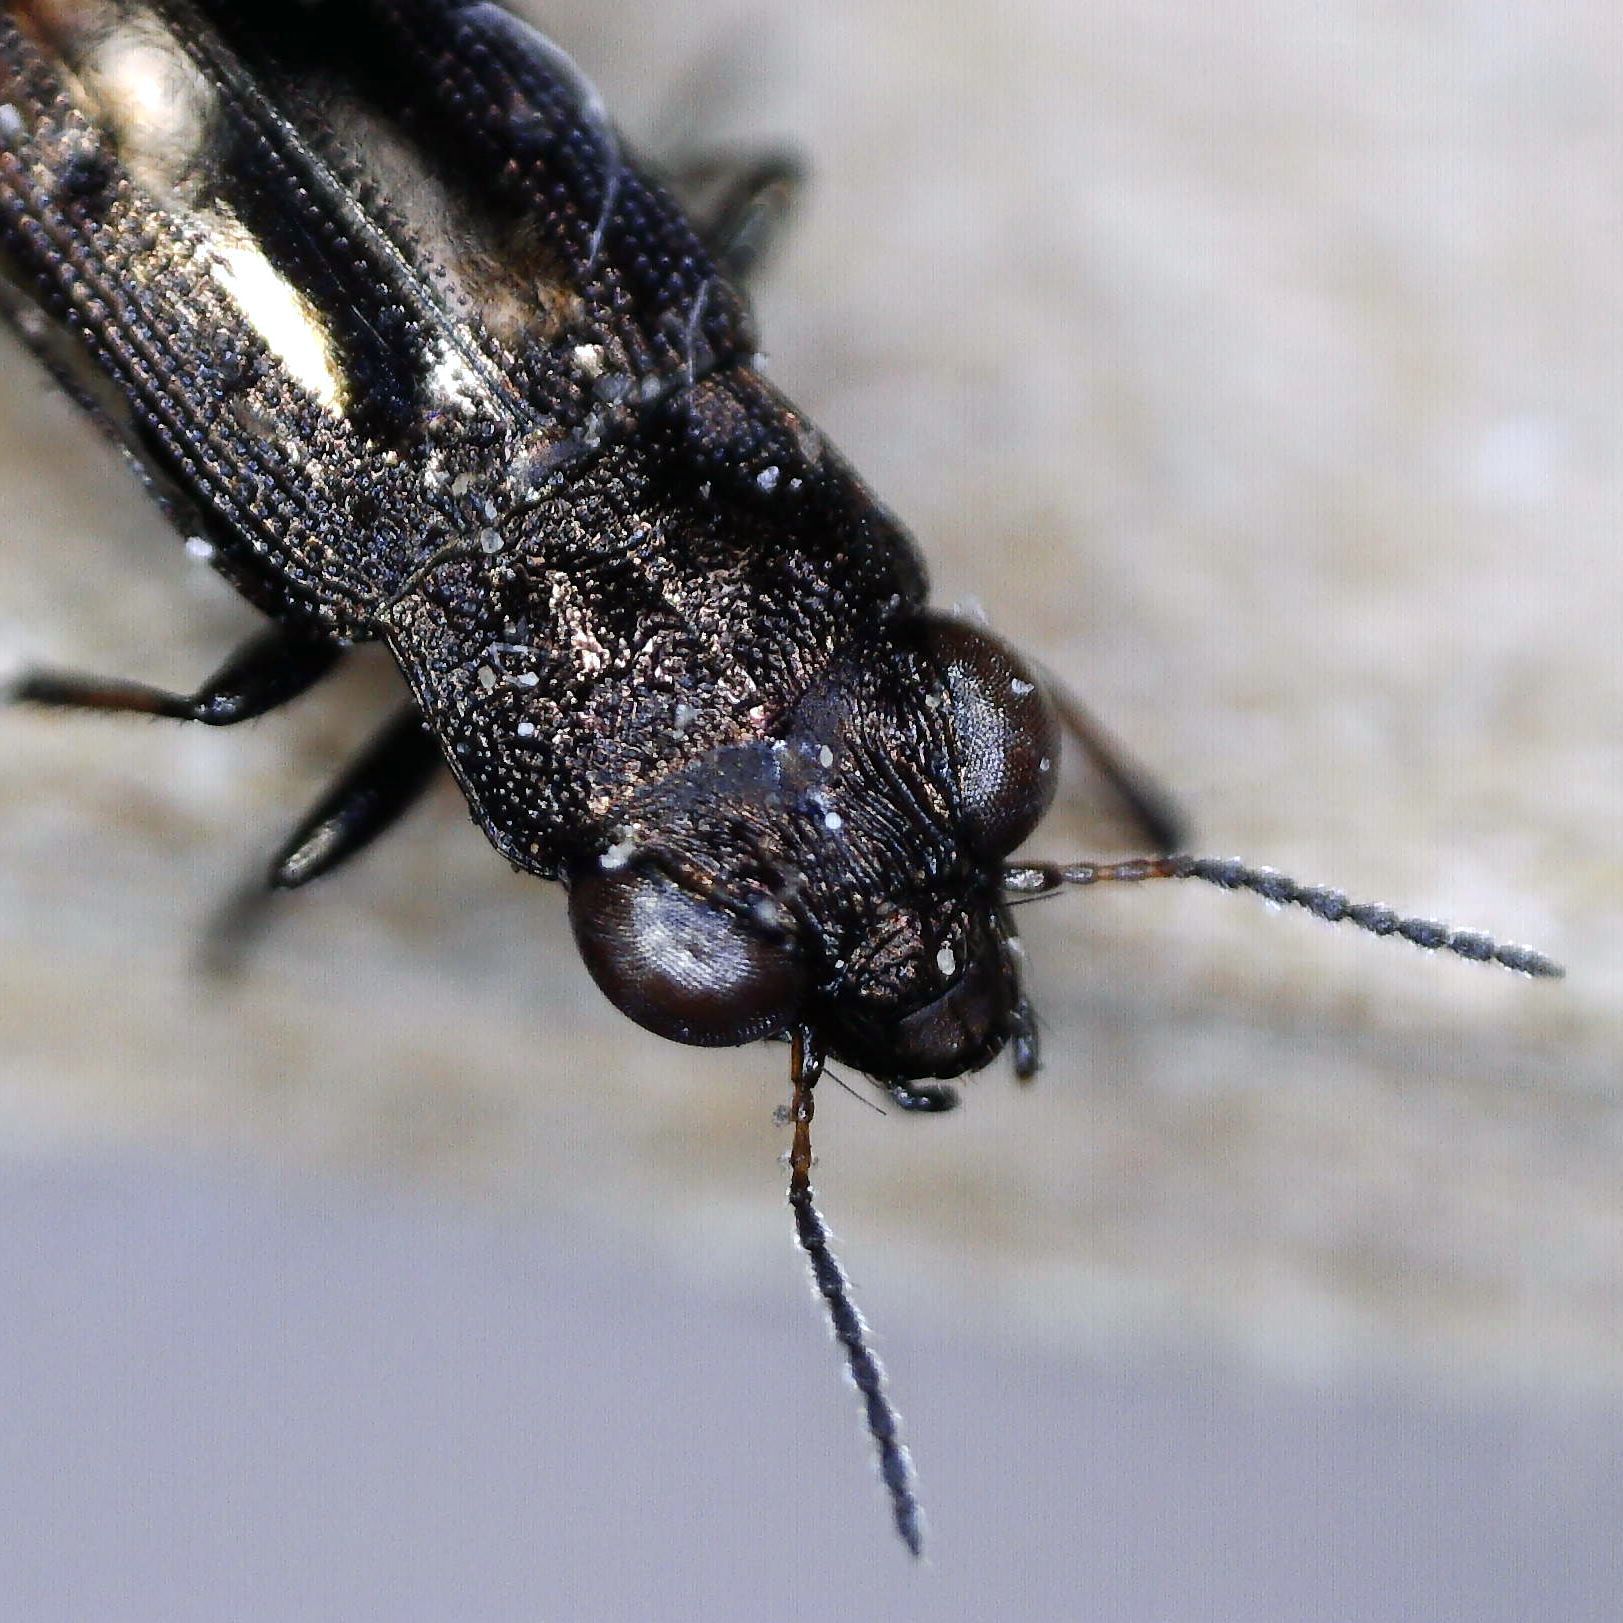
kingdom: Animalia
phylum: Arthropoda
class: Insecta
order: Coleoptera
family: Carabidae
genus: Notiophilus
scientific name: Notiophilus quadripunctatus
